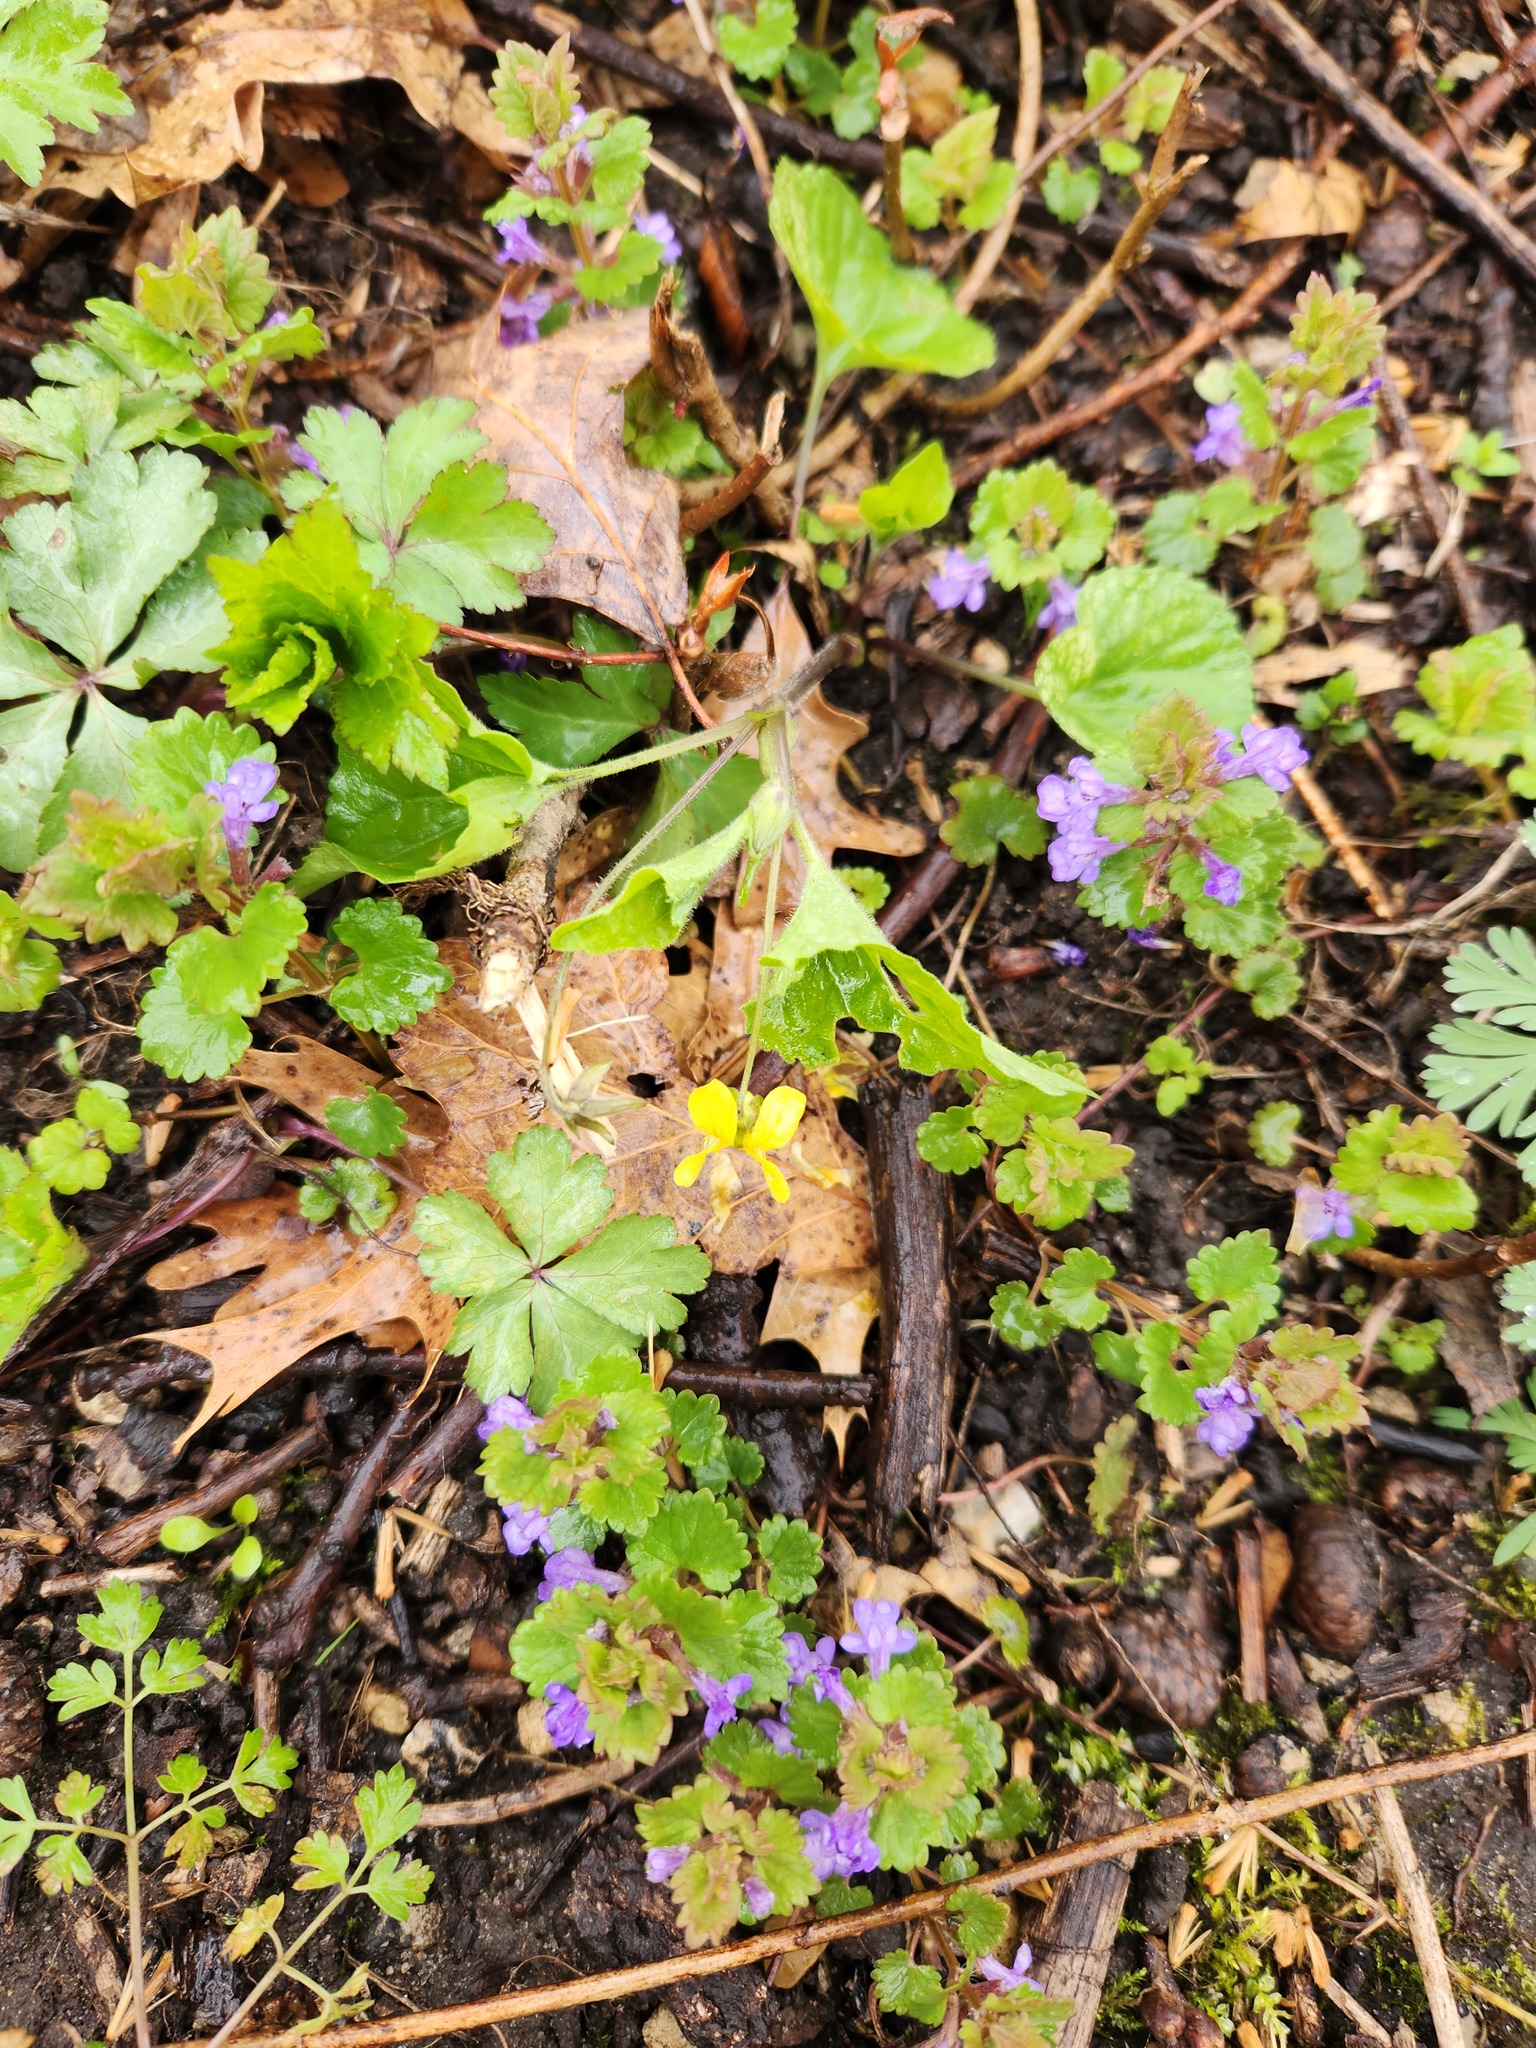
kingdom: Plantae
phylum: Tracheophyta
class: Magnoliopsida
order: Lamiales
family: Lamiaceae
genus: Glechoma
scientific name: Glechoma hederacea
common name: Ground ivy
